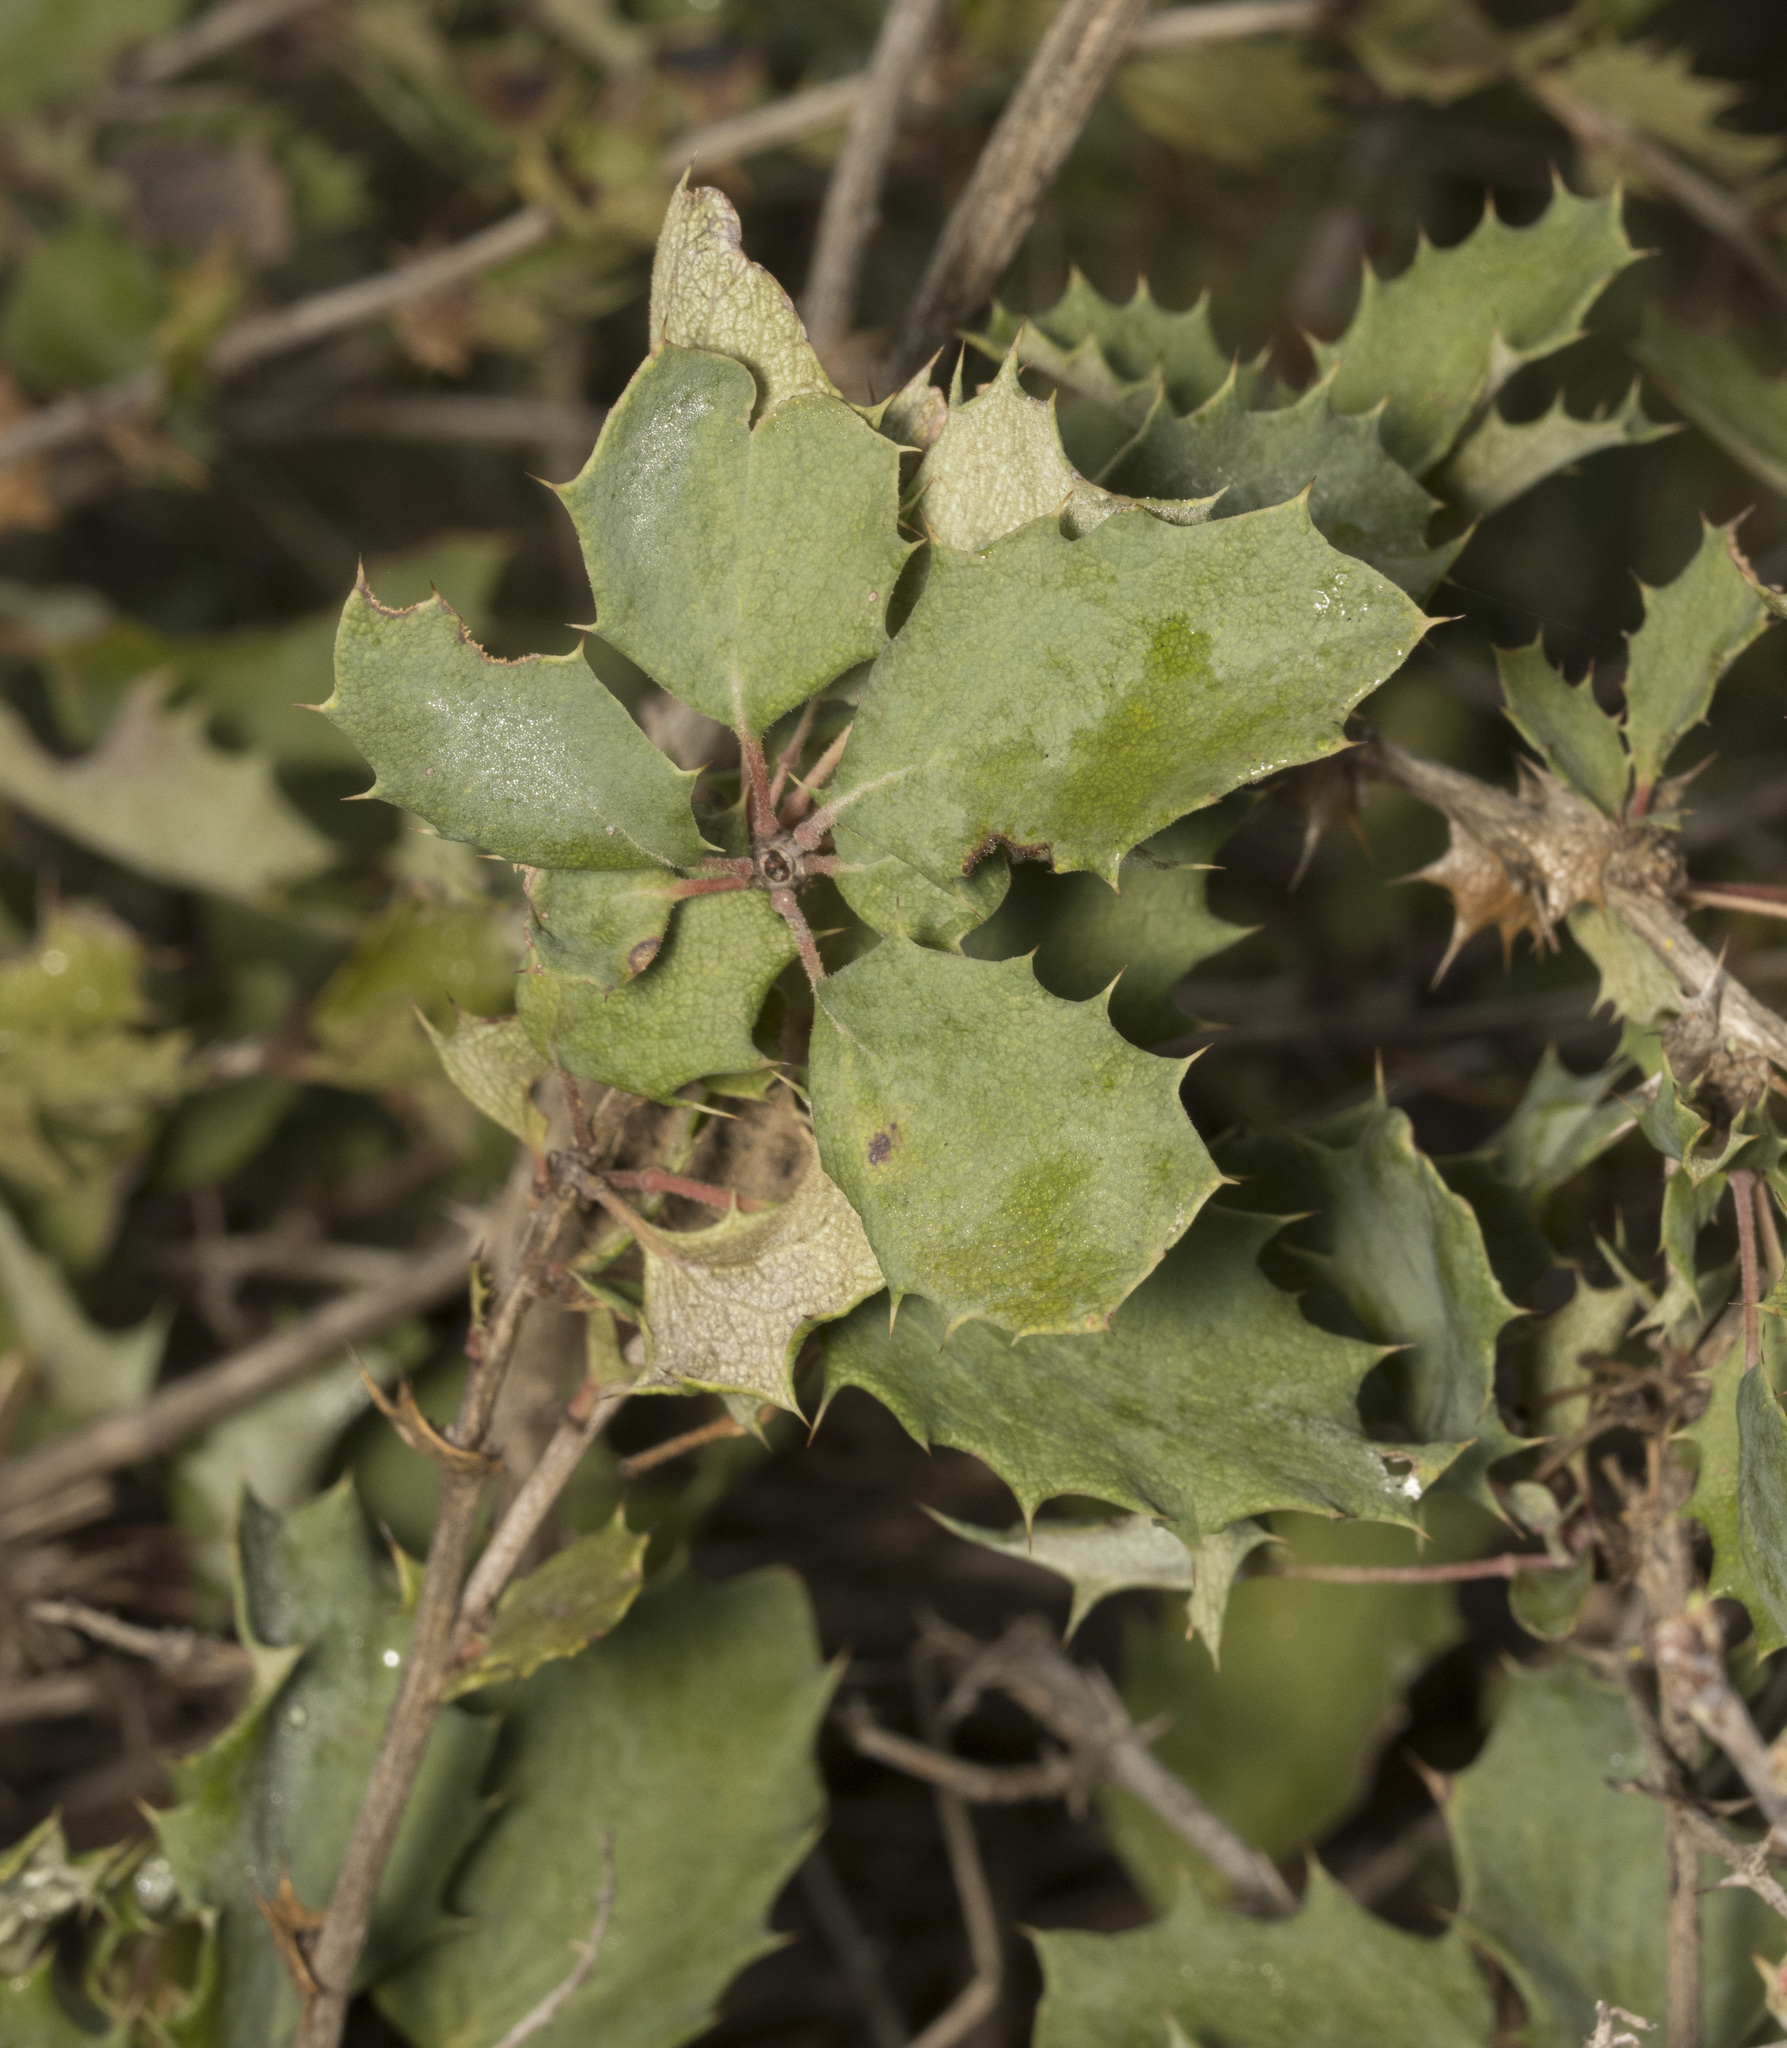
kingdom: Plantae
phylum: Tracheophyta
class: Magnoliopsida
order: Ranunculales
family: Berberidaceae
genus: Berberis
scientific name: Berberis actinacantha
